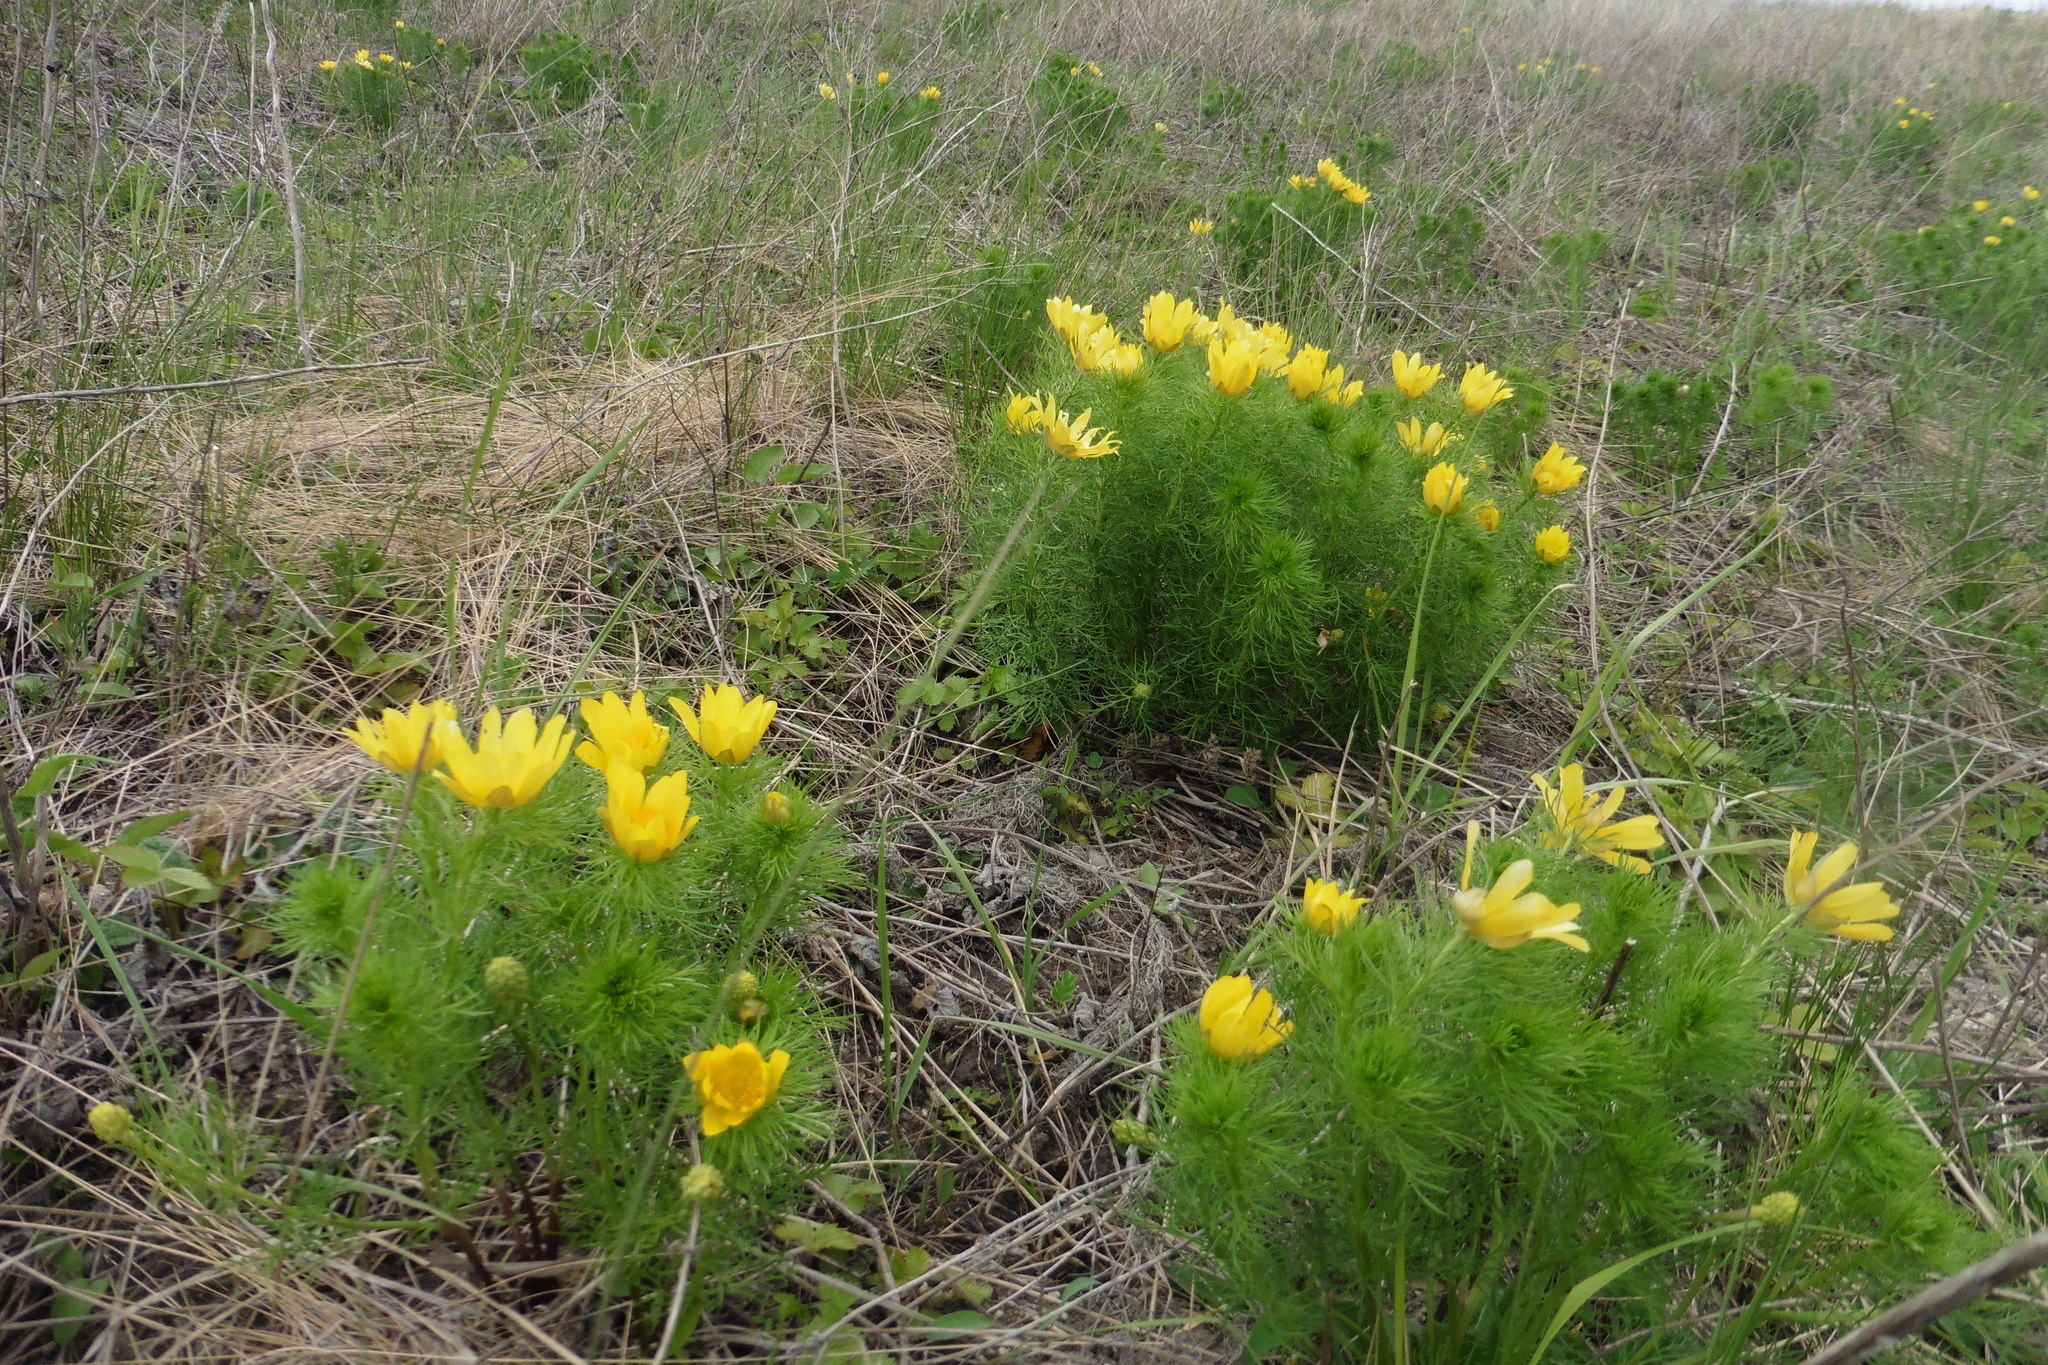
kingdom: Plantae
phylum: Tracheophyta
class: Magnoliopsida
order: Ranunculales
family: Ranunculaceae
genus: Adonis
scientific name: Adonis vernalis
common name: Yellow pheasants-eye
